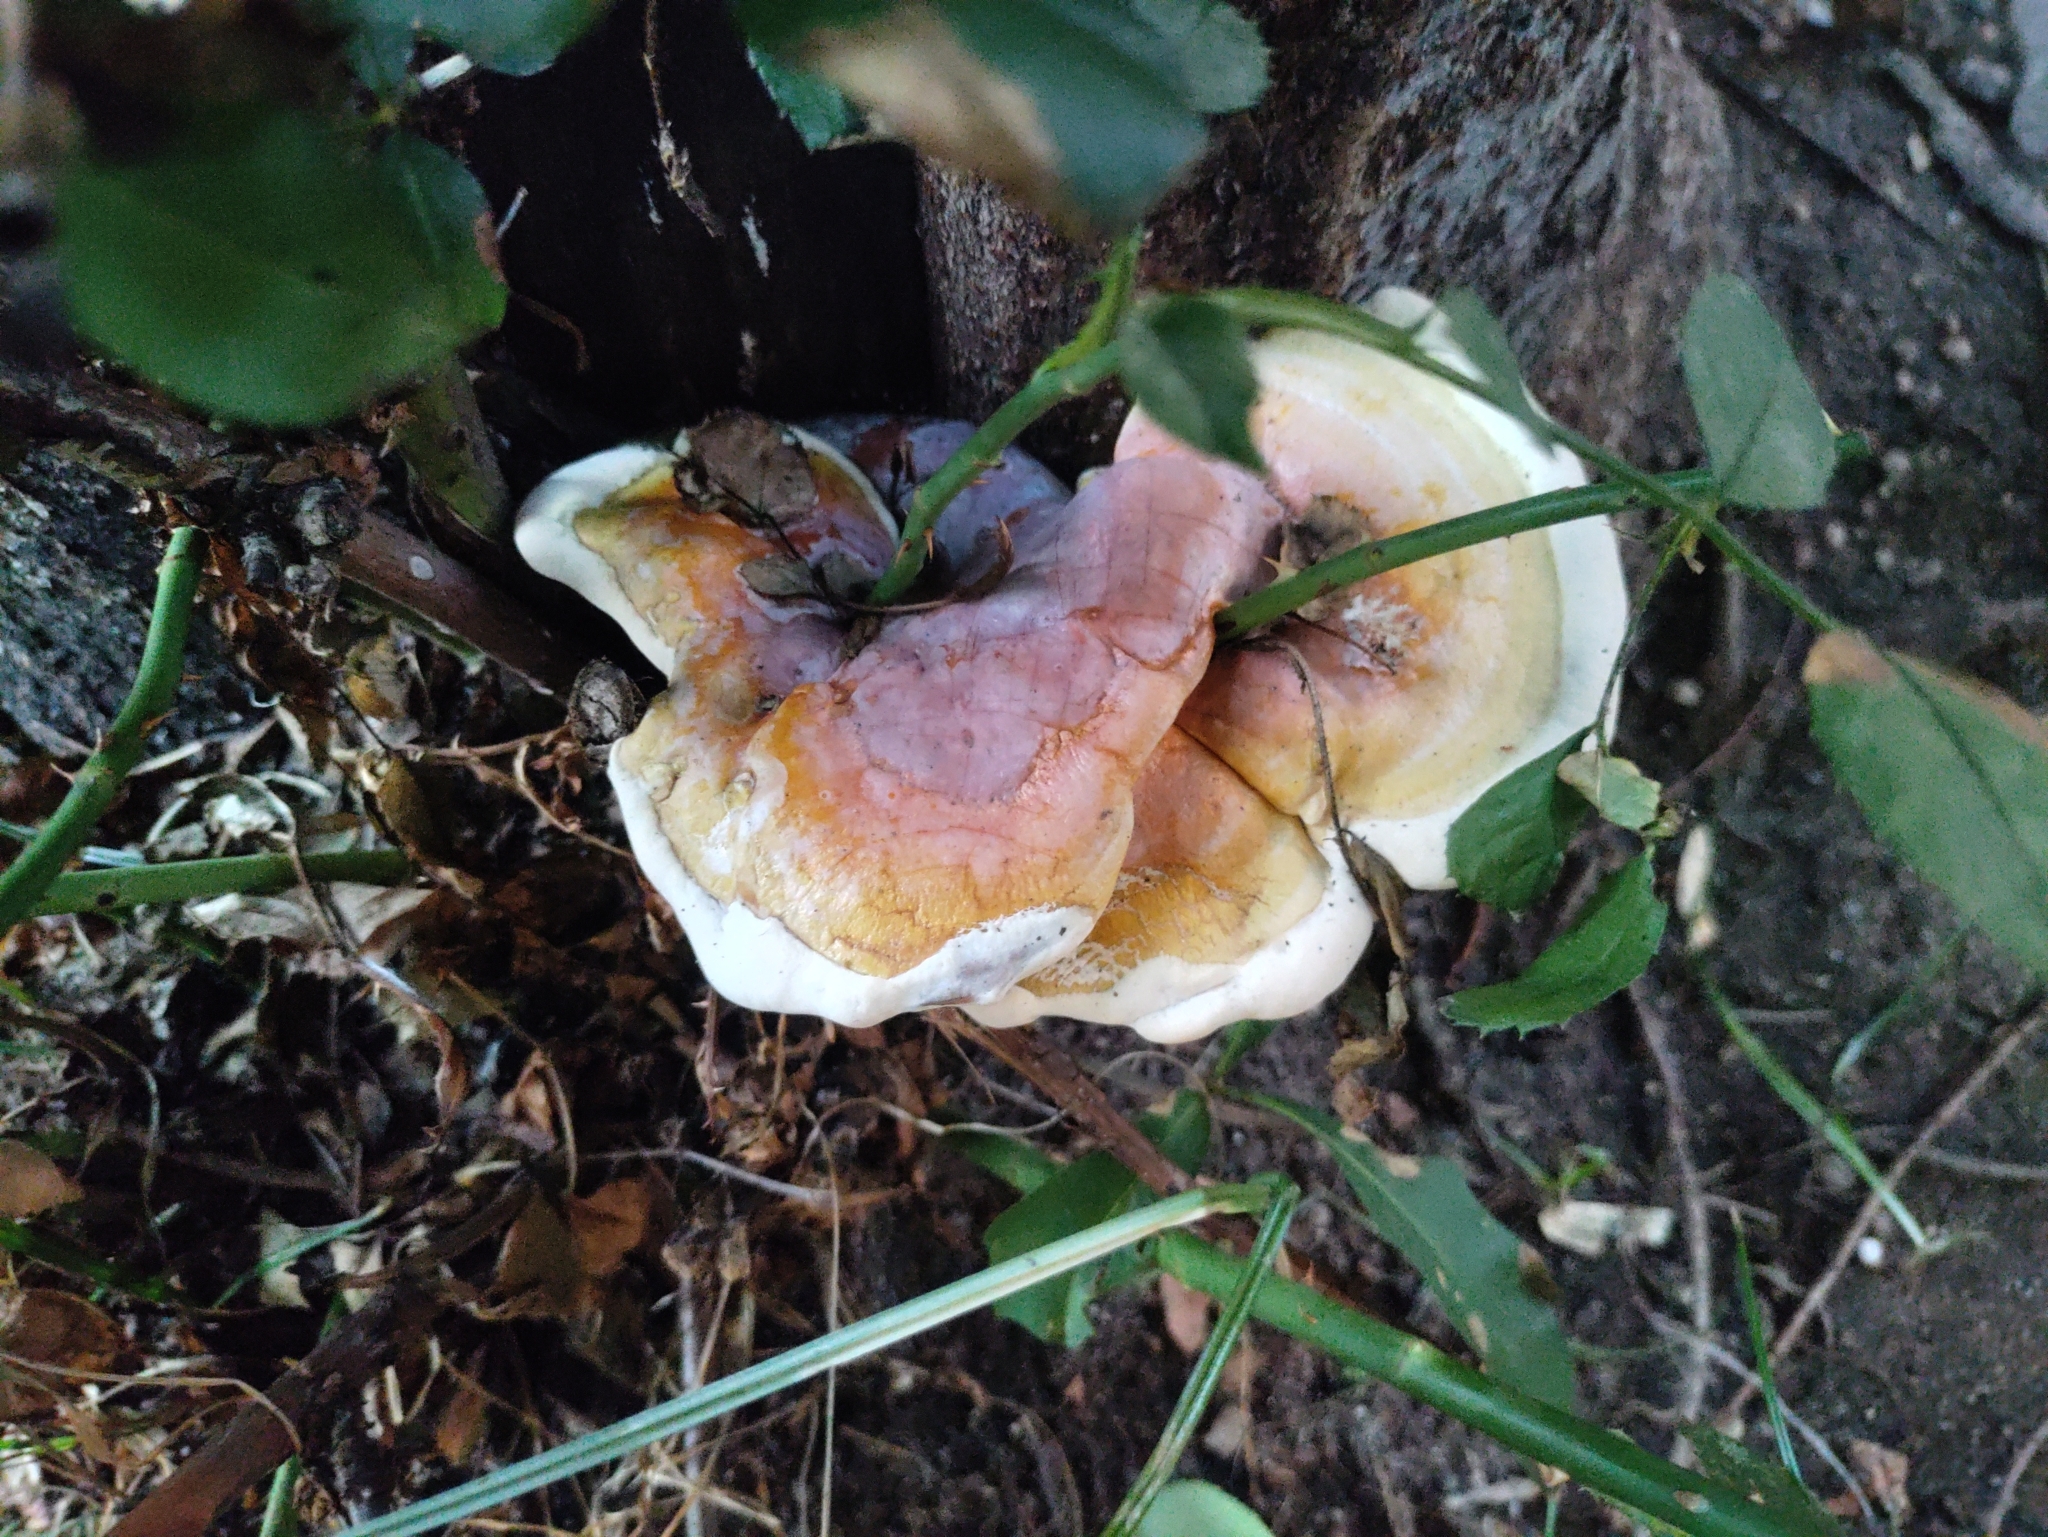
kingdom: Fungi
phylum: Basidiomycota
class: Agaricomycetes
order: Polyporales
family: Polyporaceae
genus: Ganoderma
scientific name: Ganoderma resinaceum
